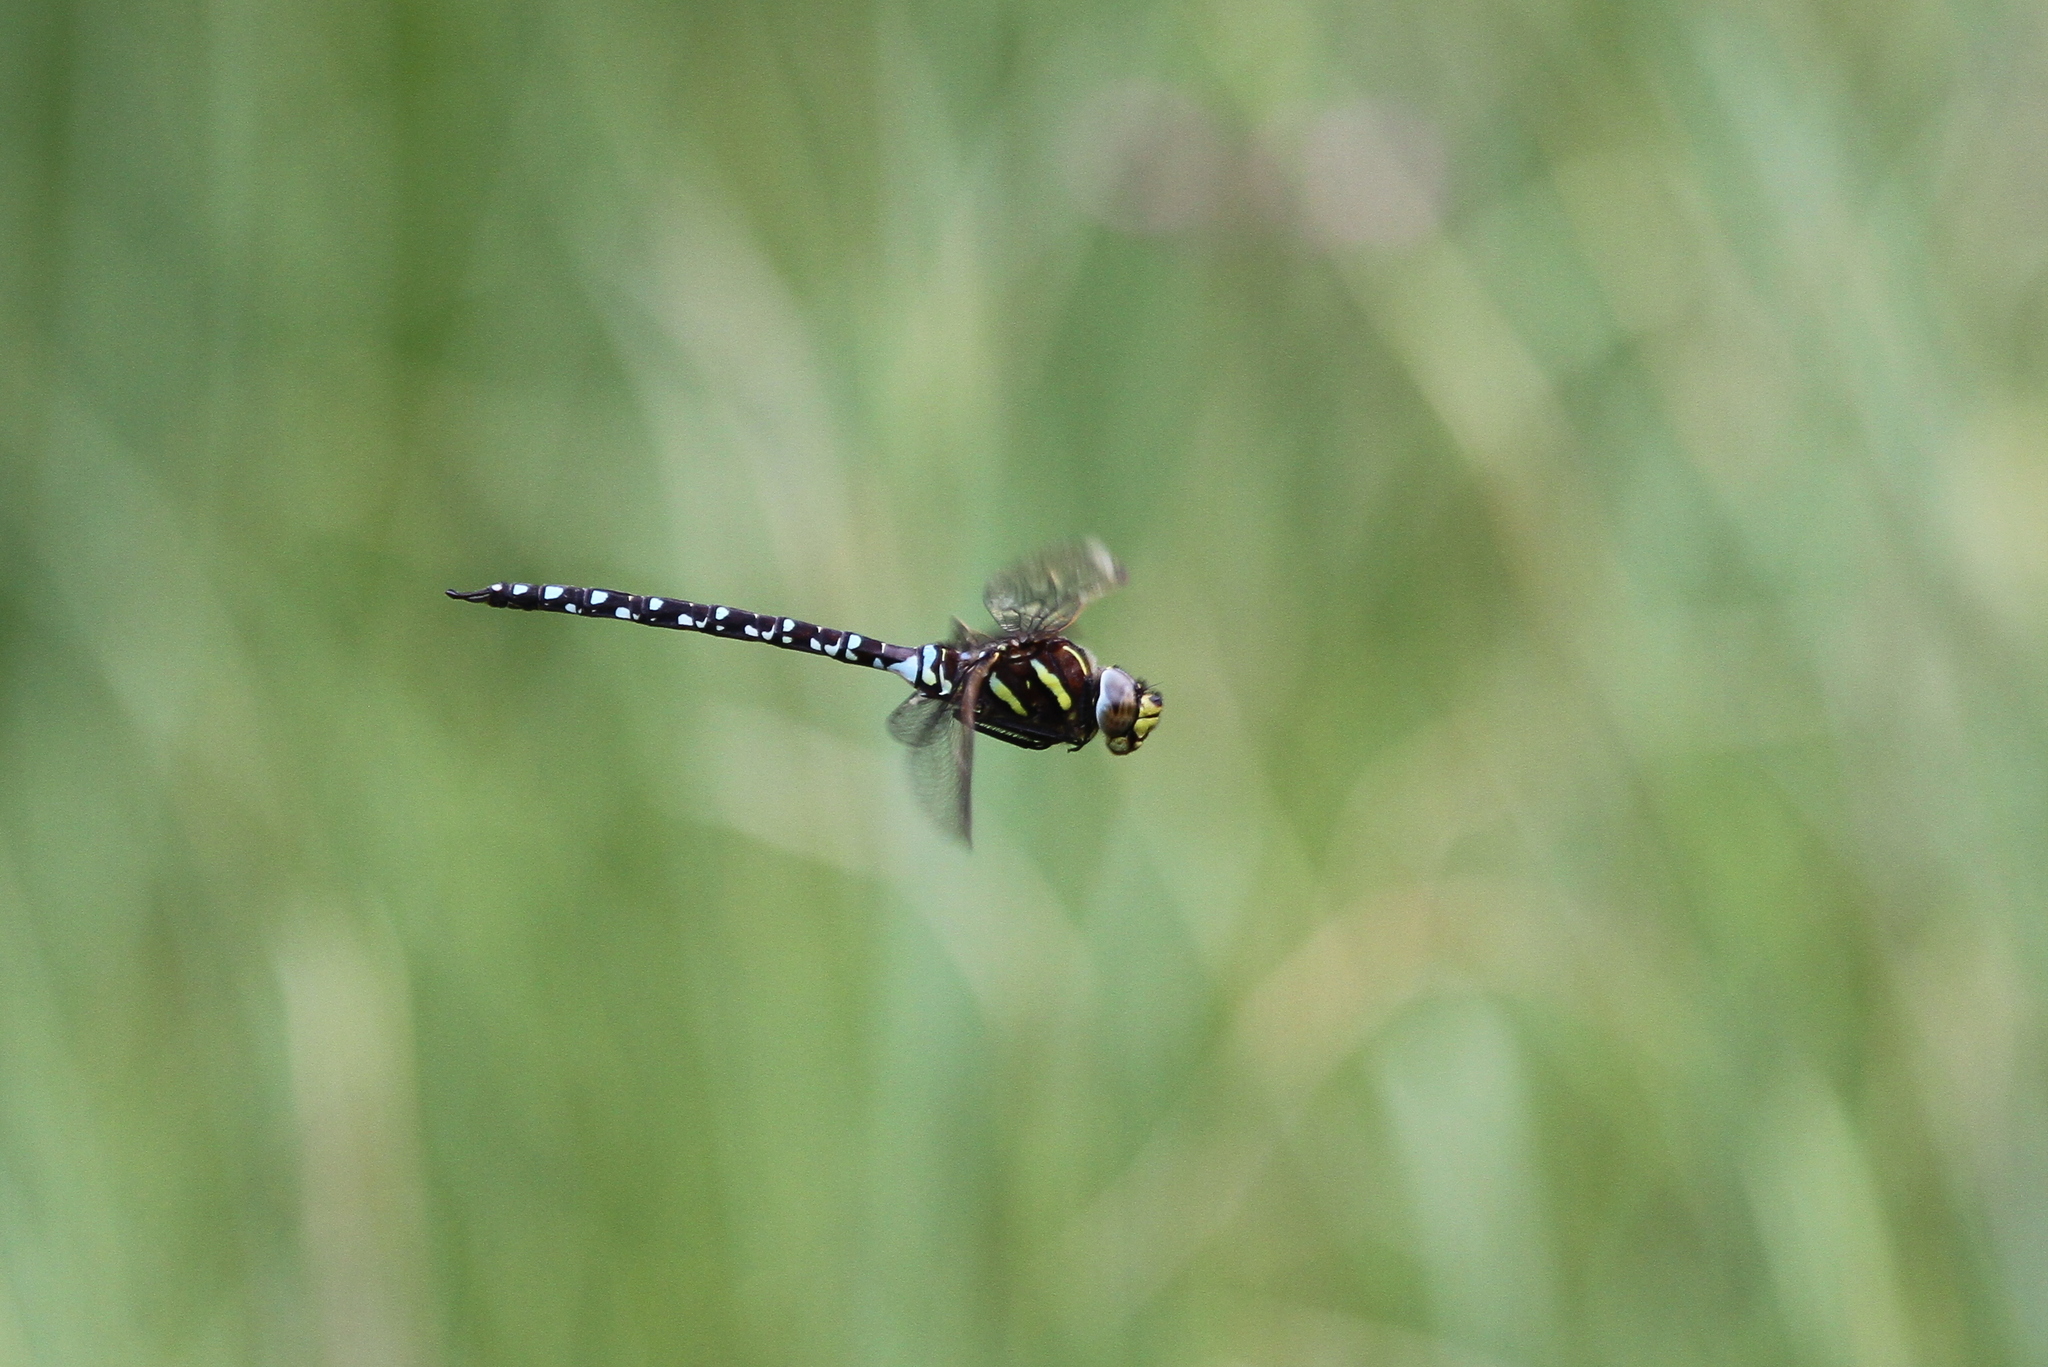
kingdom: Animalia
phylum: Arthropoda
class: Insecta
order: Odonata
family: Aeshnidae
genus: Aeshna
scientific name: Aeshna juncea
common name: Moorland hawker
